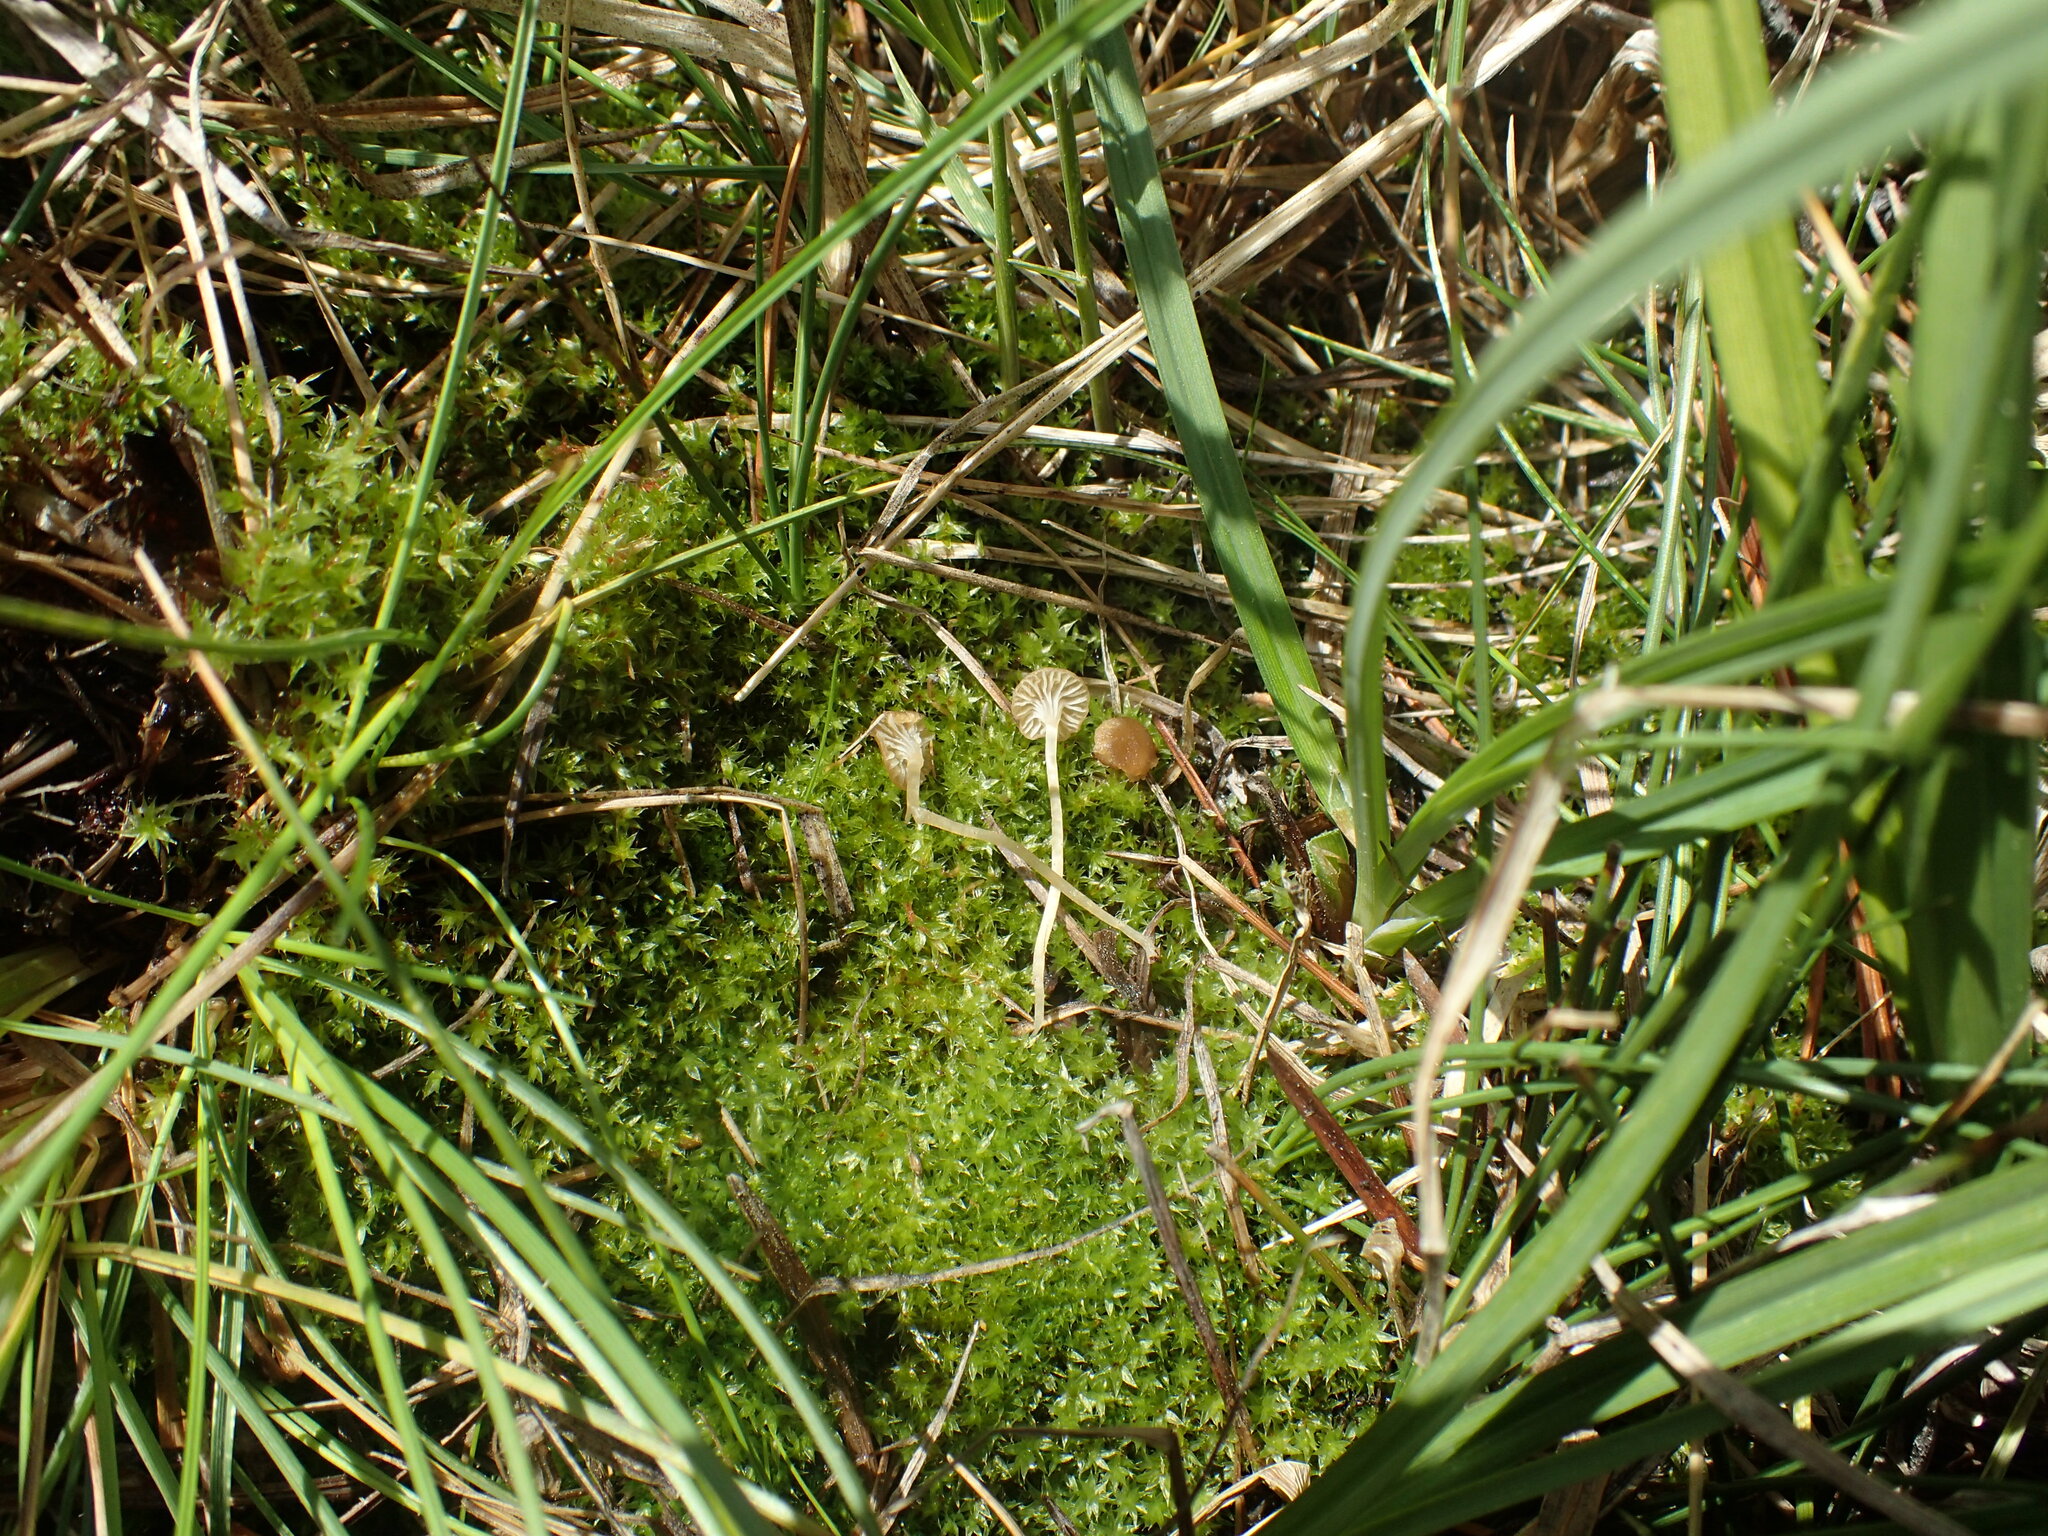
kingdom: Fungi
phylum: Basidiomycota
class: Agaricomycetes
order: Hymenochaetales
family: Rickenellaceae
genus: Rickenella
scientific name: Rickenella mellea
